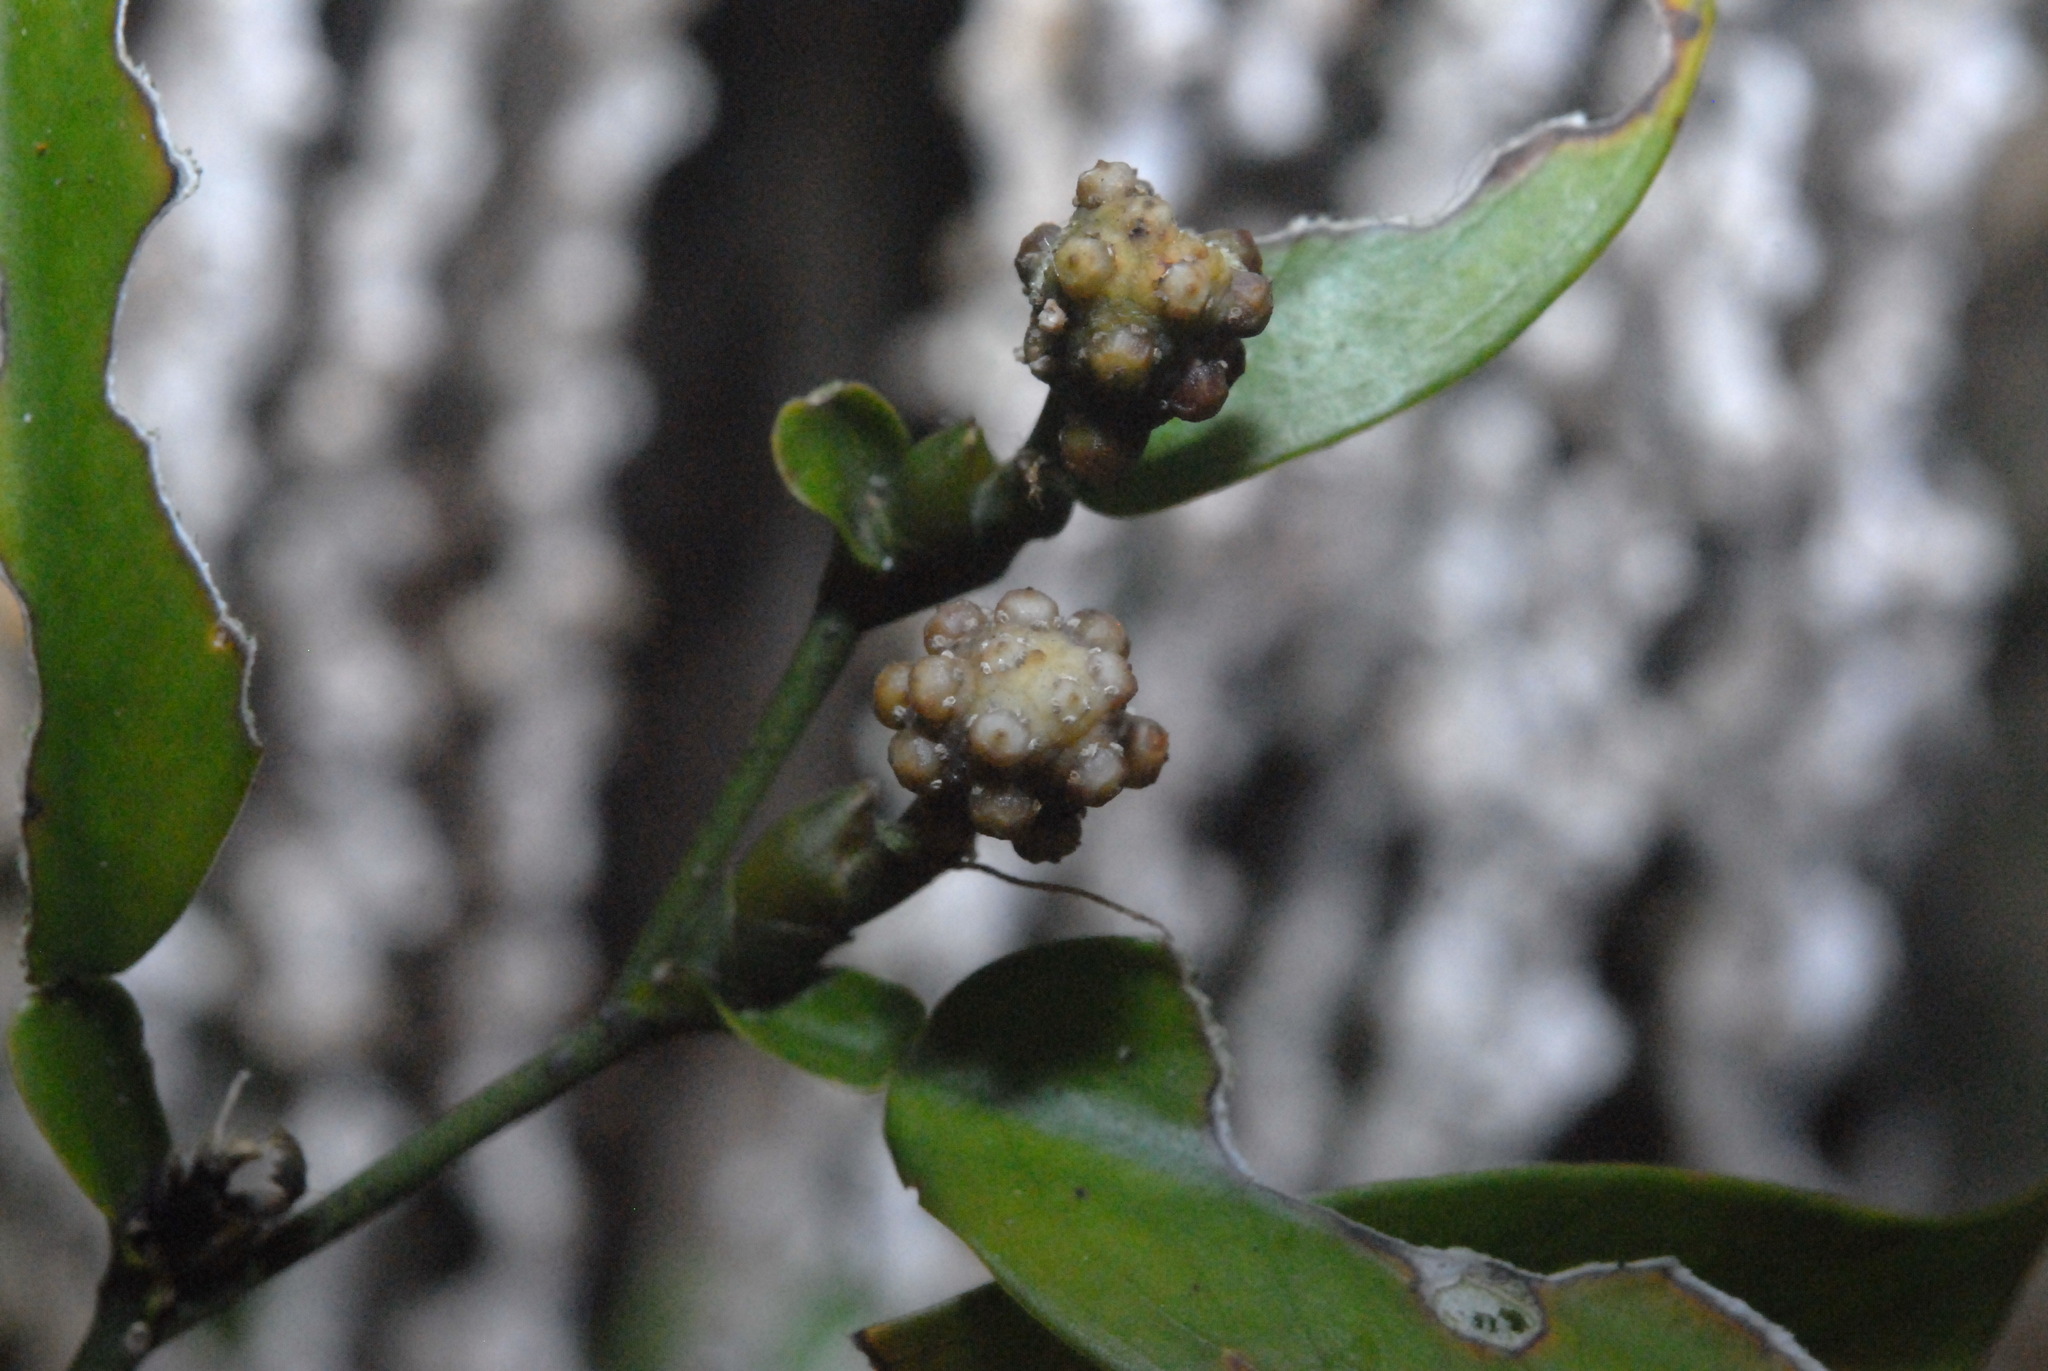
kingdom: Plantae
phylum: Tracheophyta
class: Liliopsida
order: Alismatales
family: Araceae
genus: Pothos
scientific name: Pothos chinensis
